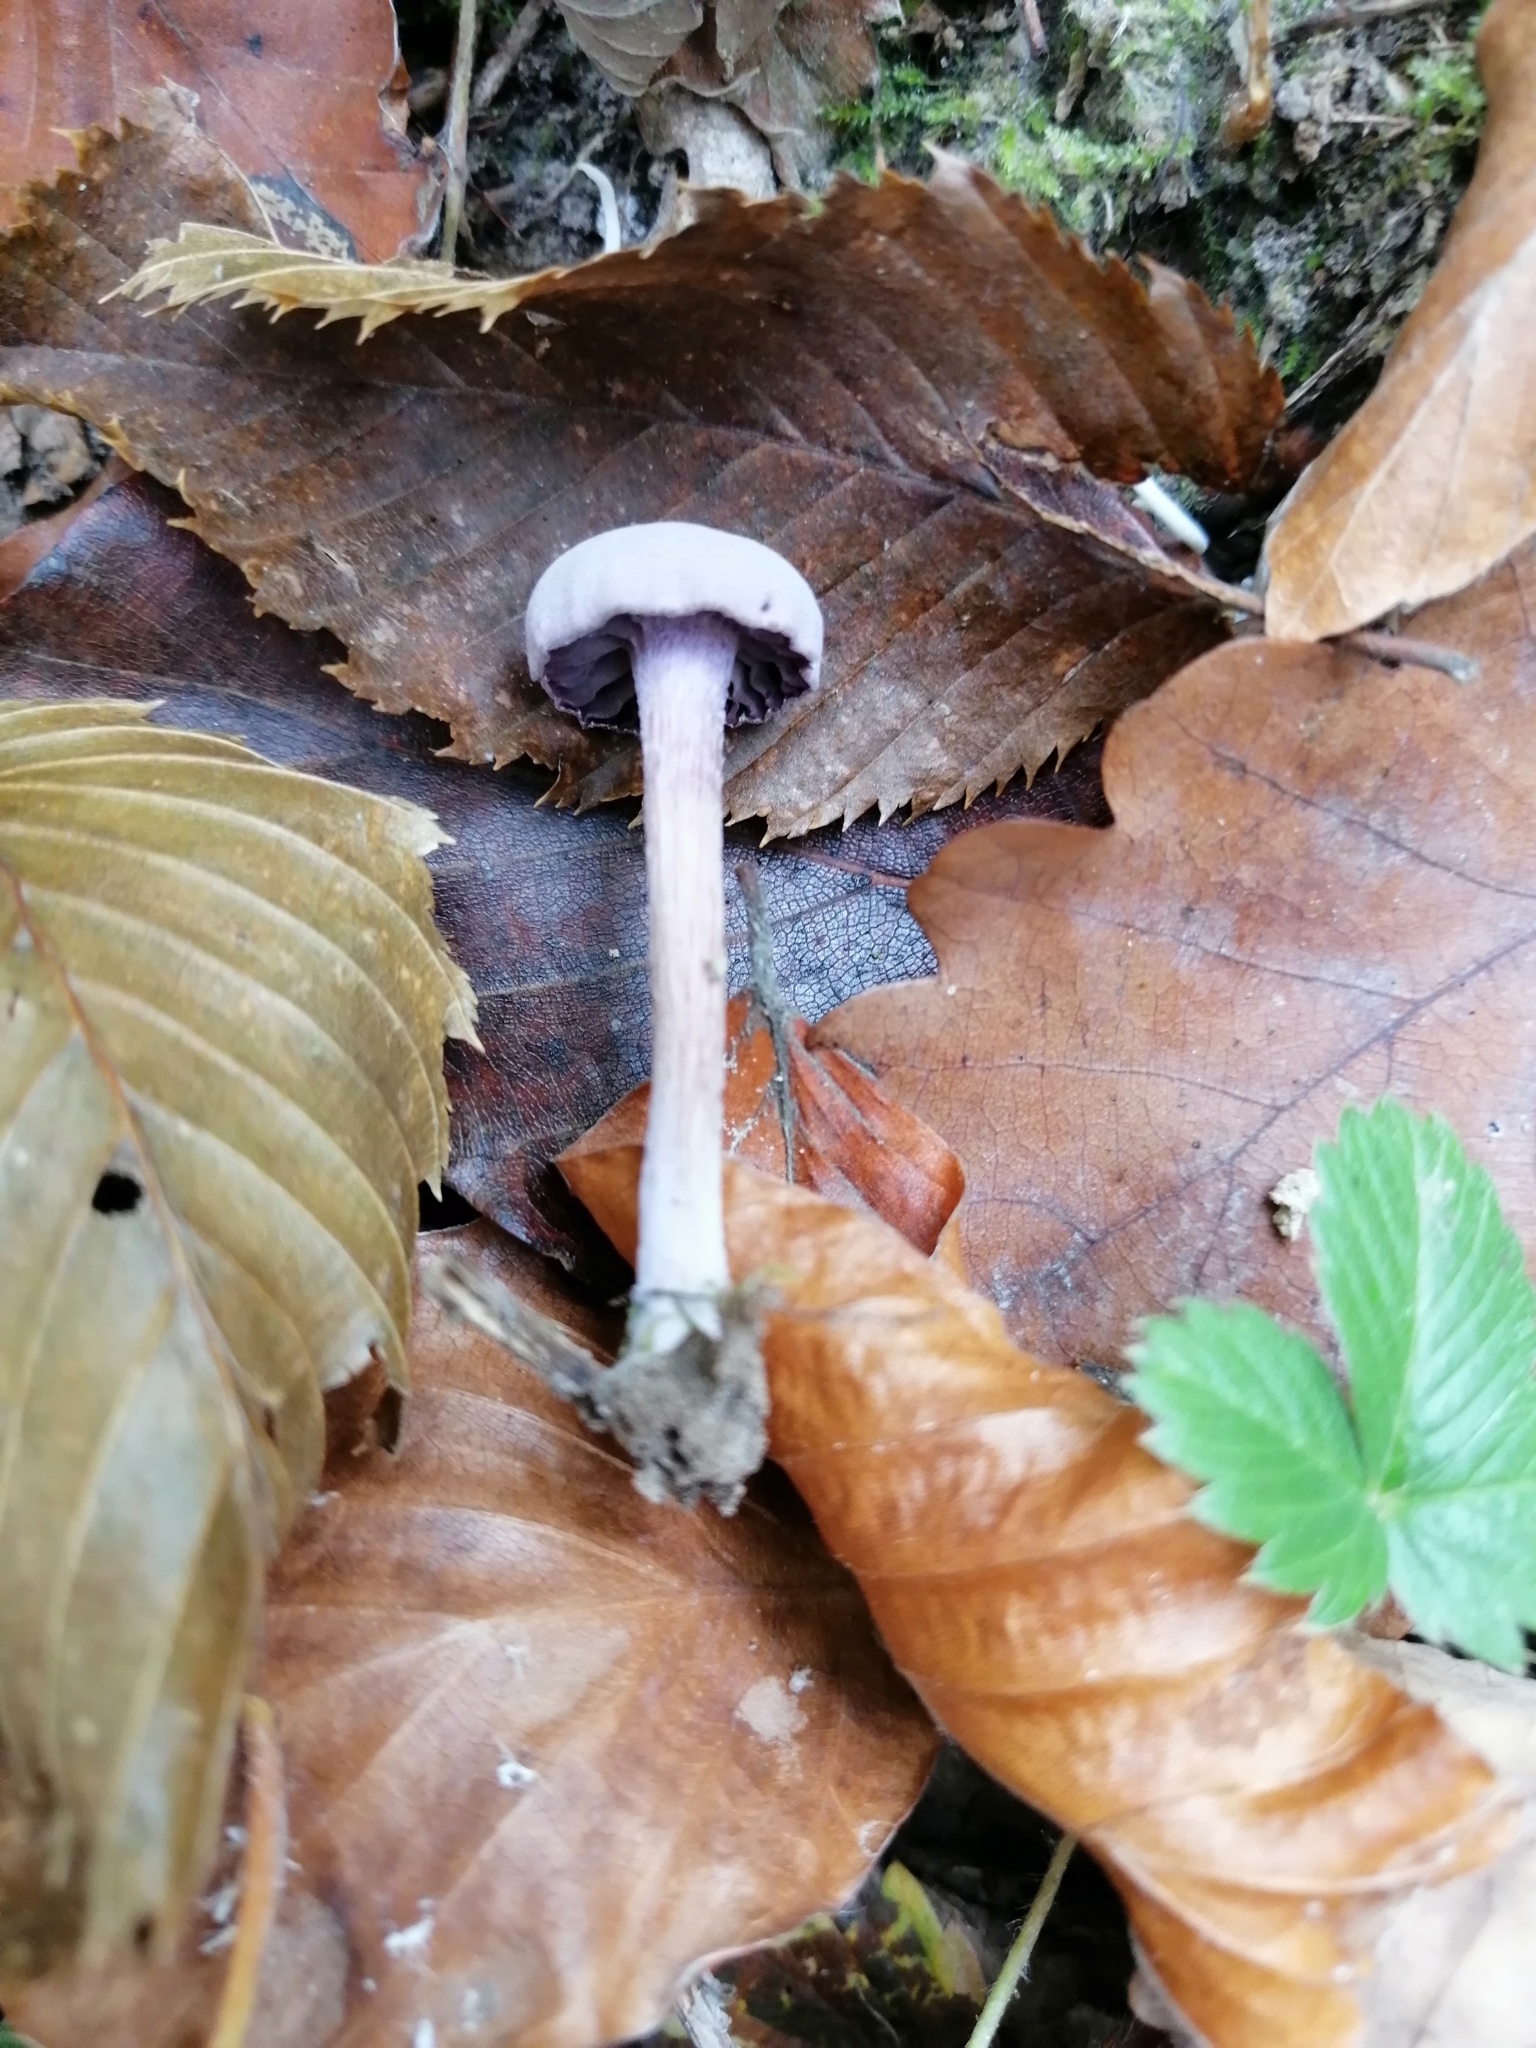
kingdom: Fungi
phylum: Basidiomycota
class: Agaricomycetes
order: Agaricales
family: Hydnangiaceae
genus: Laccaria
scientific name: Laccaria amethystina
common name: Amethyst deceiver
